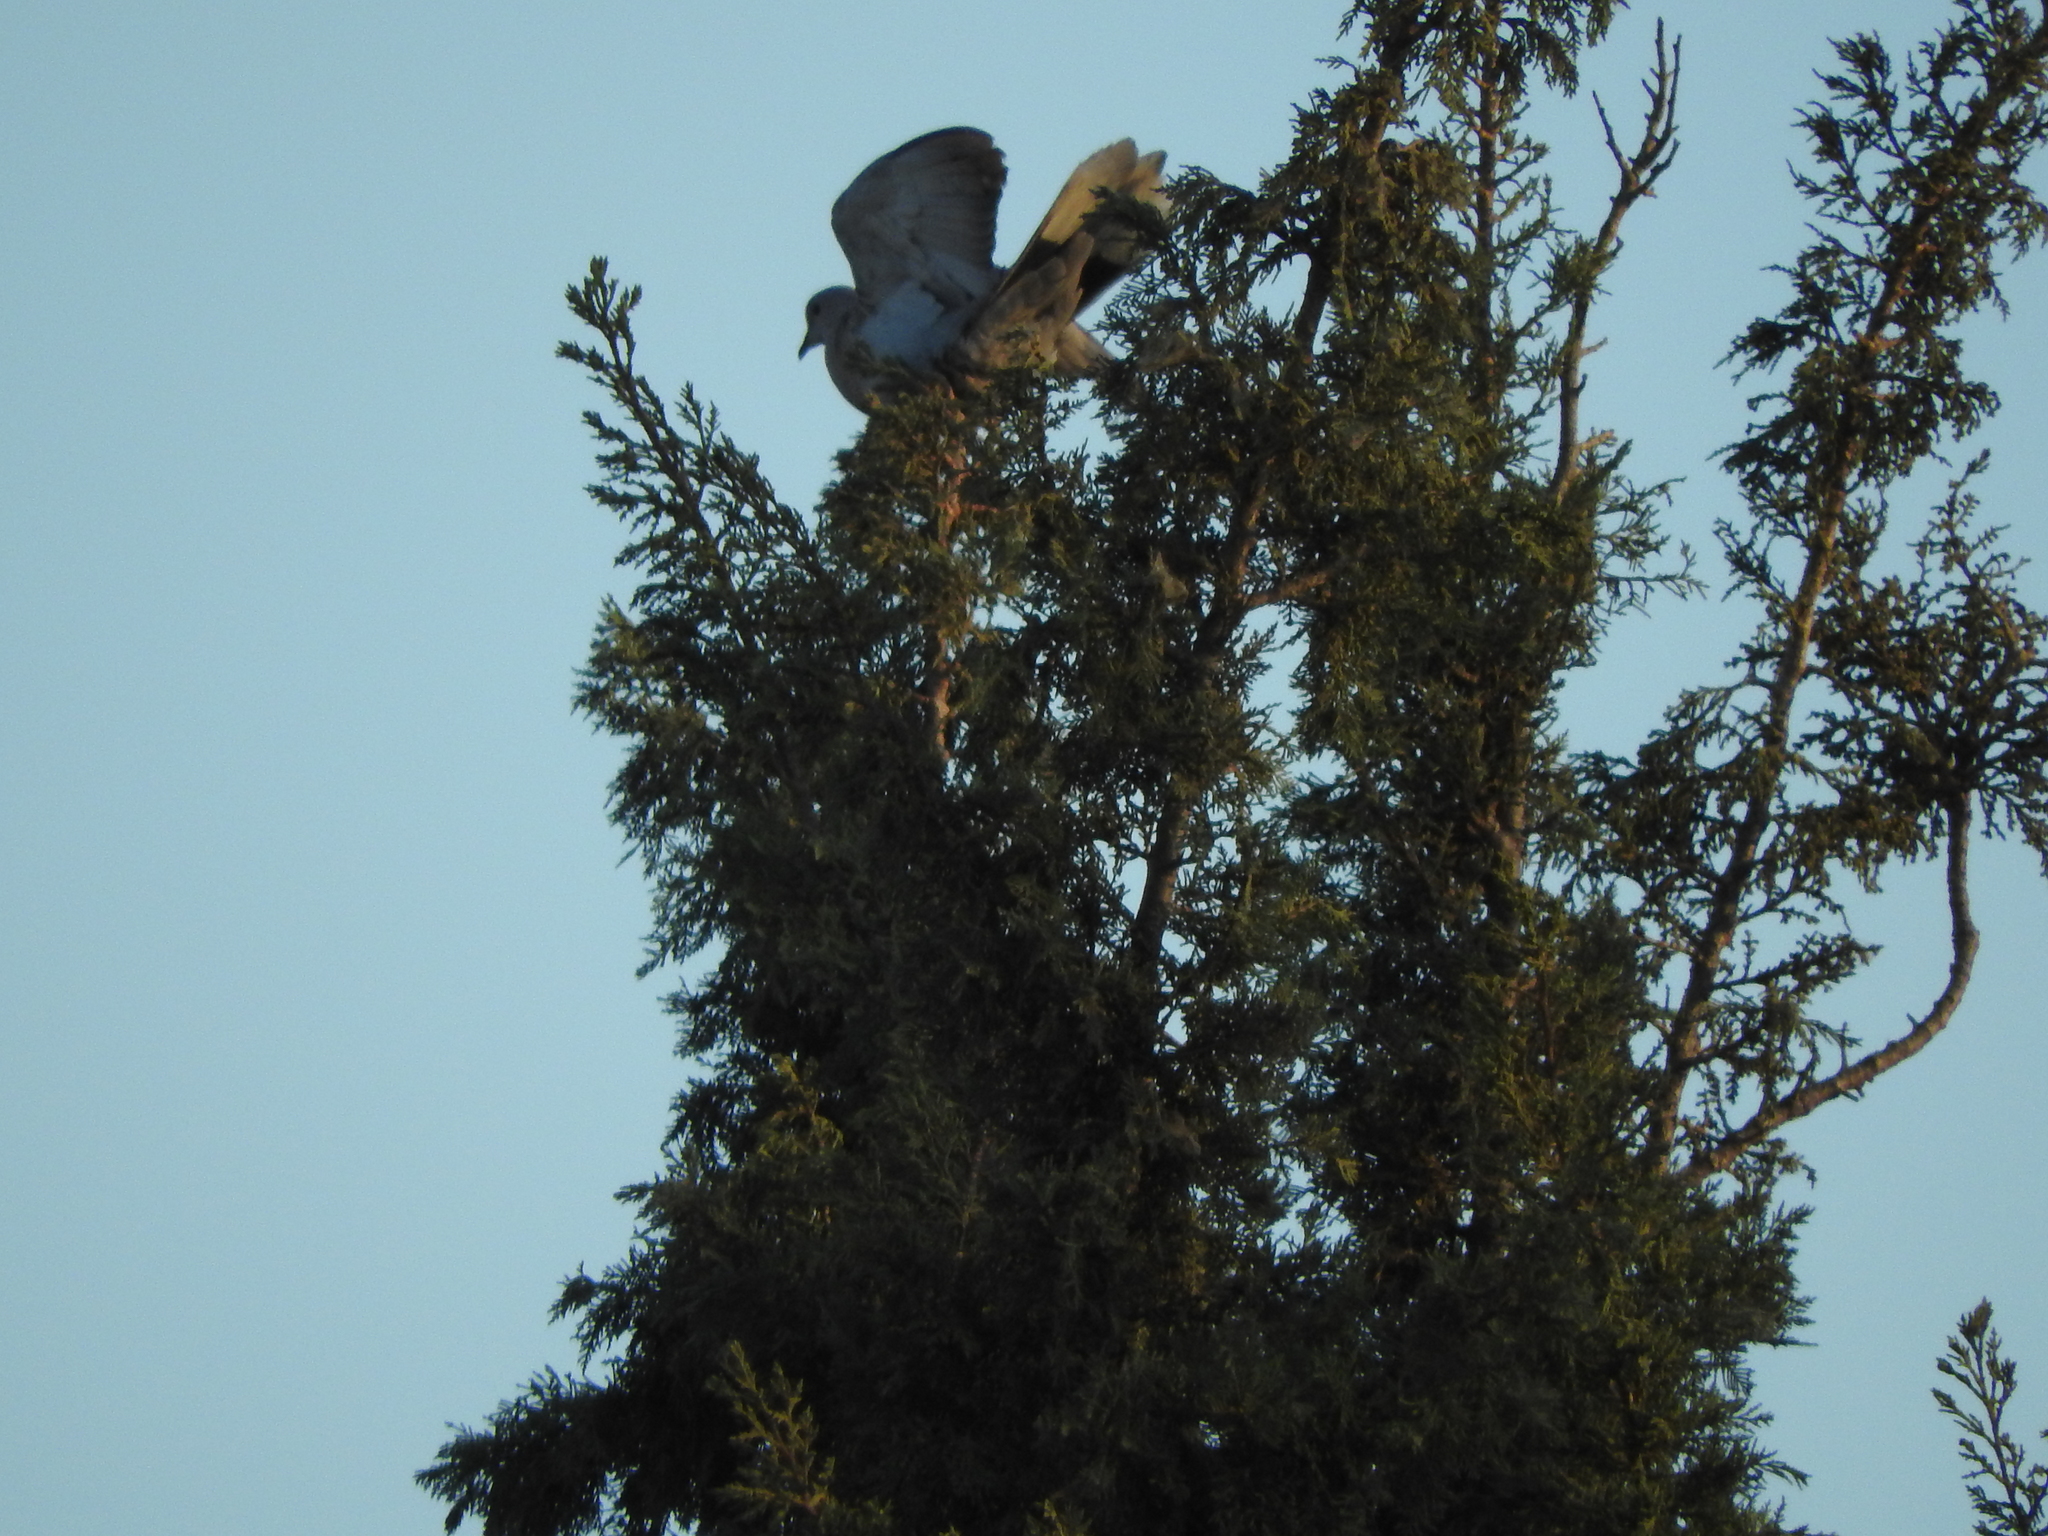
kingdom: Animalia
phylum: Chordata
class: Aves
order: Columbiformes
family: Columbidae
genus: Streptopelia
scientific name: Streptopelia decaocto
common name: Eurasian collared dove
